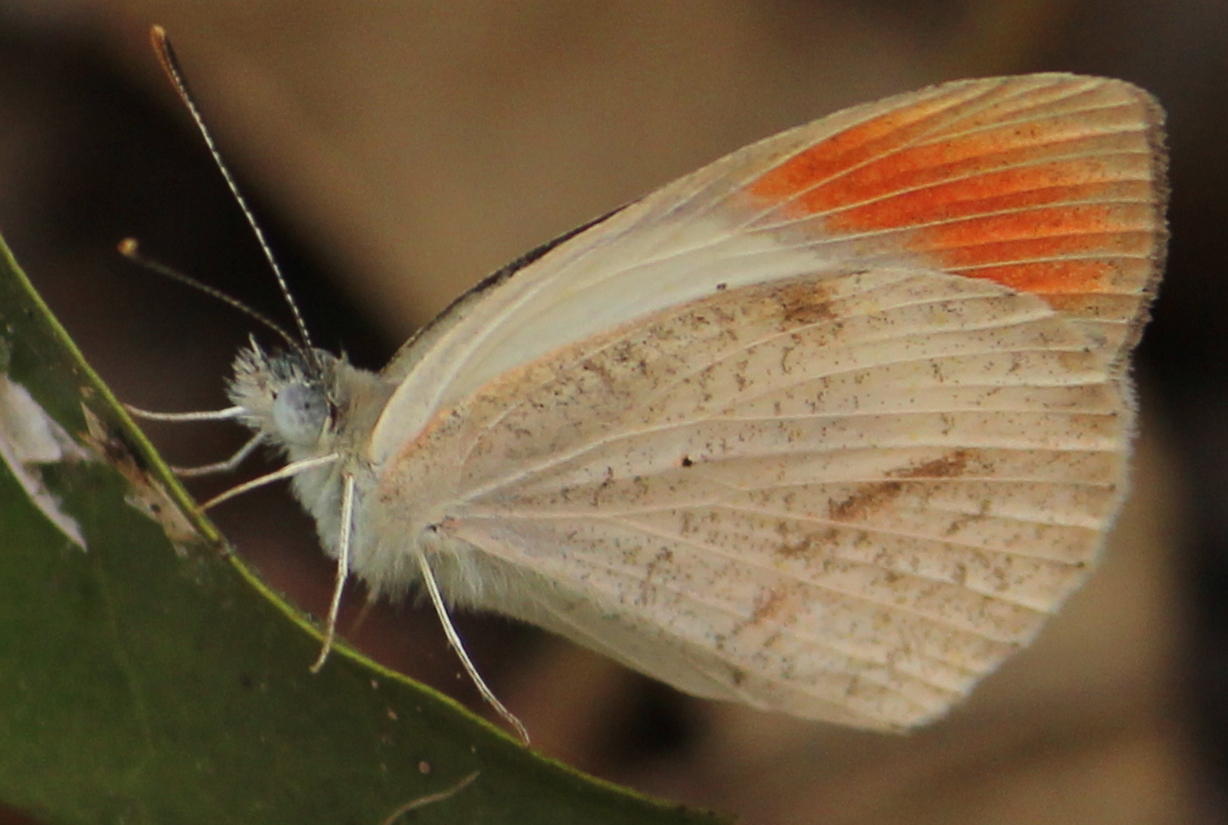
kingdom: Animalia
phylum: Arthropoda
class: Insecta
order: Lepidoptera
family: Pieridae
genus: Colotis
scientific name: Colotis euippe
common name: Round-winged orange tip
